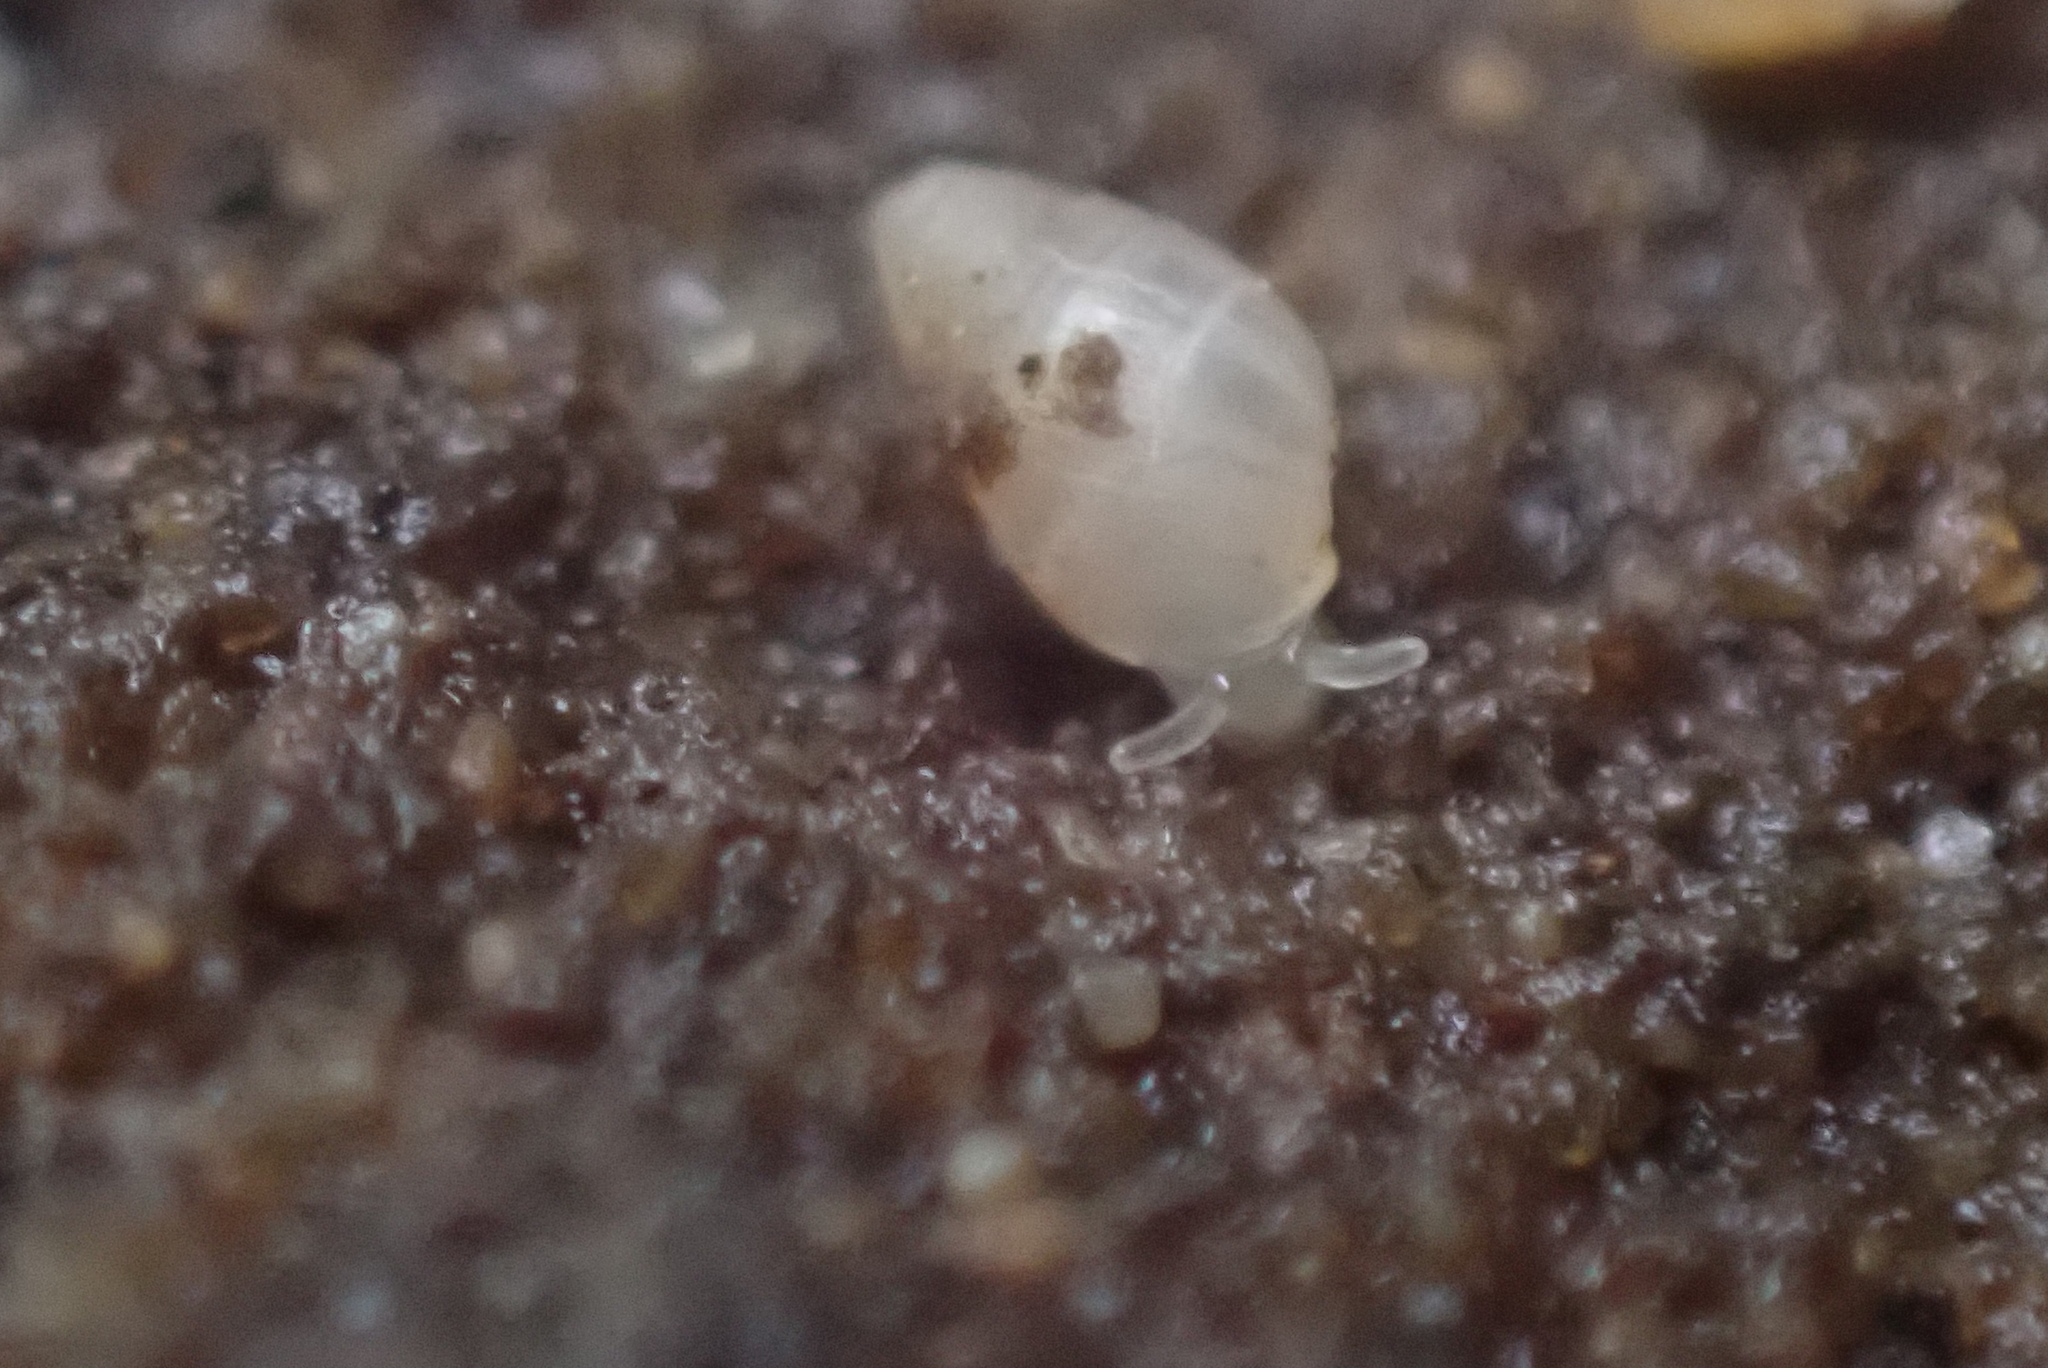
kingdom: Animalia
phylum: Mollusca
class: Gastropoda
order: Ellobiida
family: Ellobiidae
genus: Leuconopsis
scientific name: Leuconopsis obsoleta
